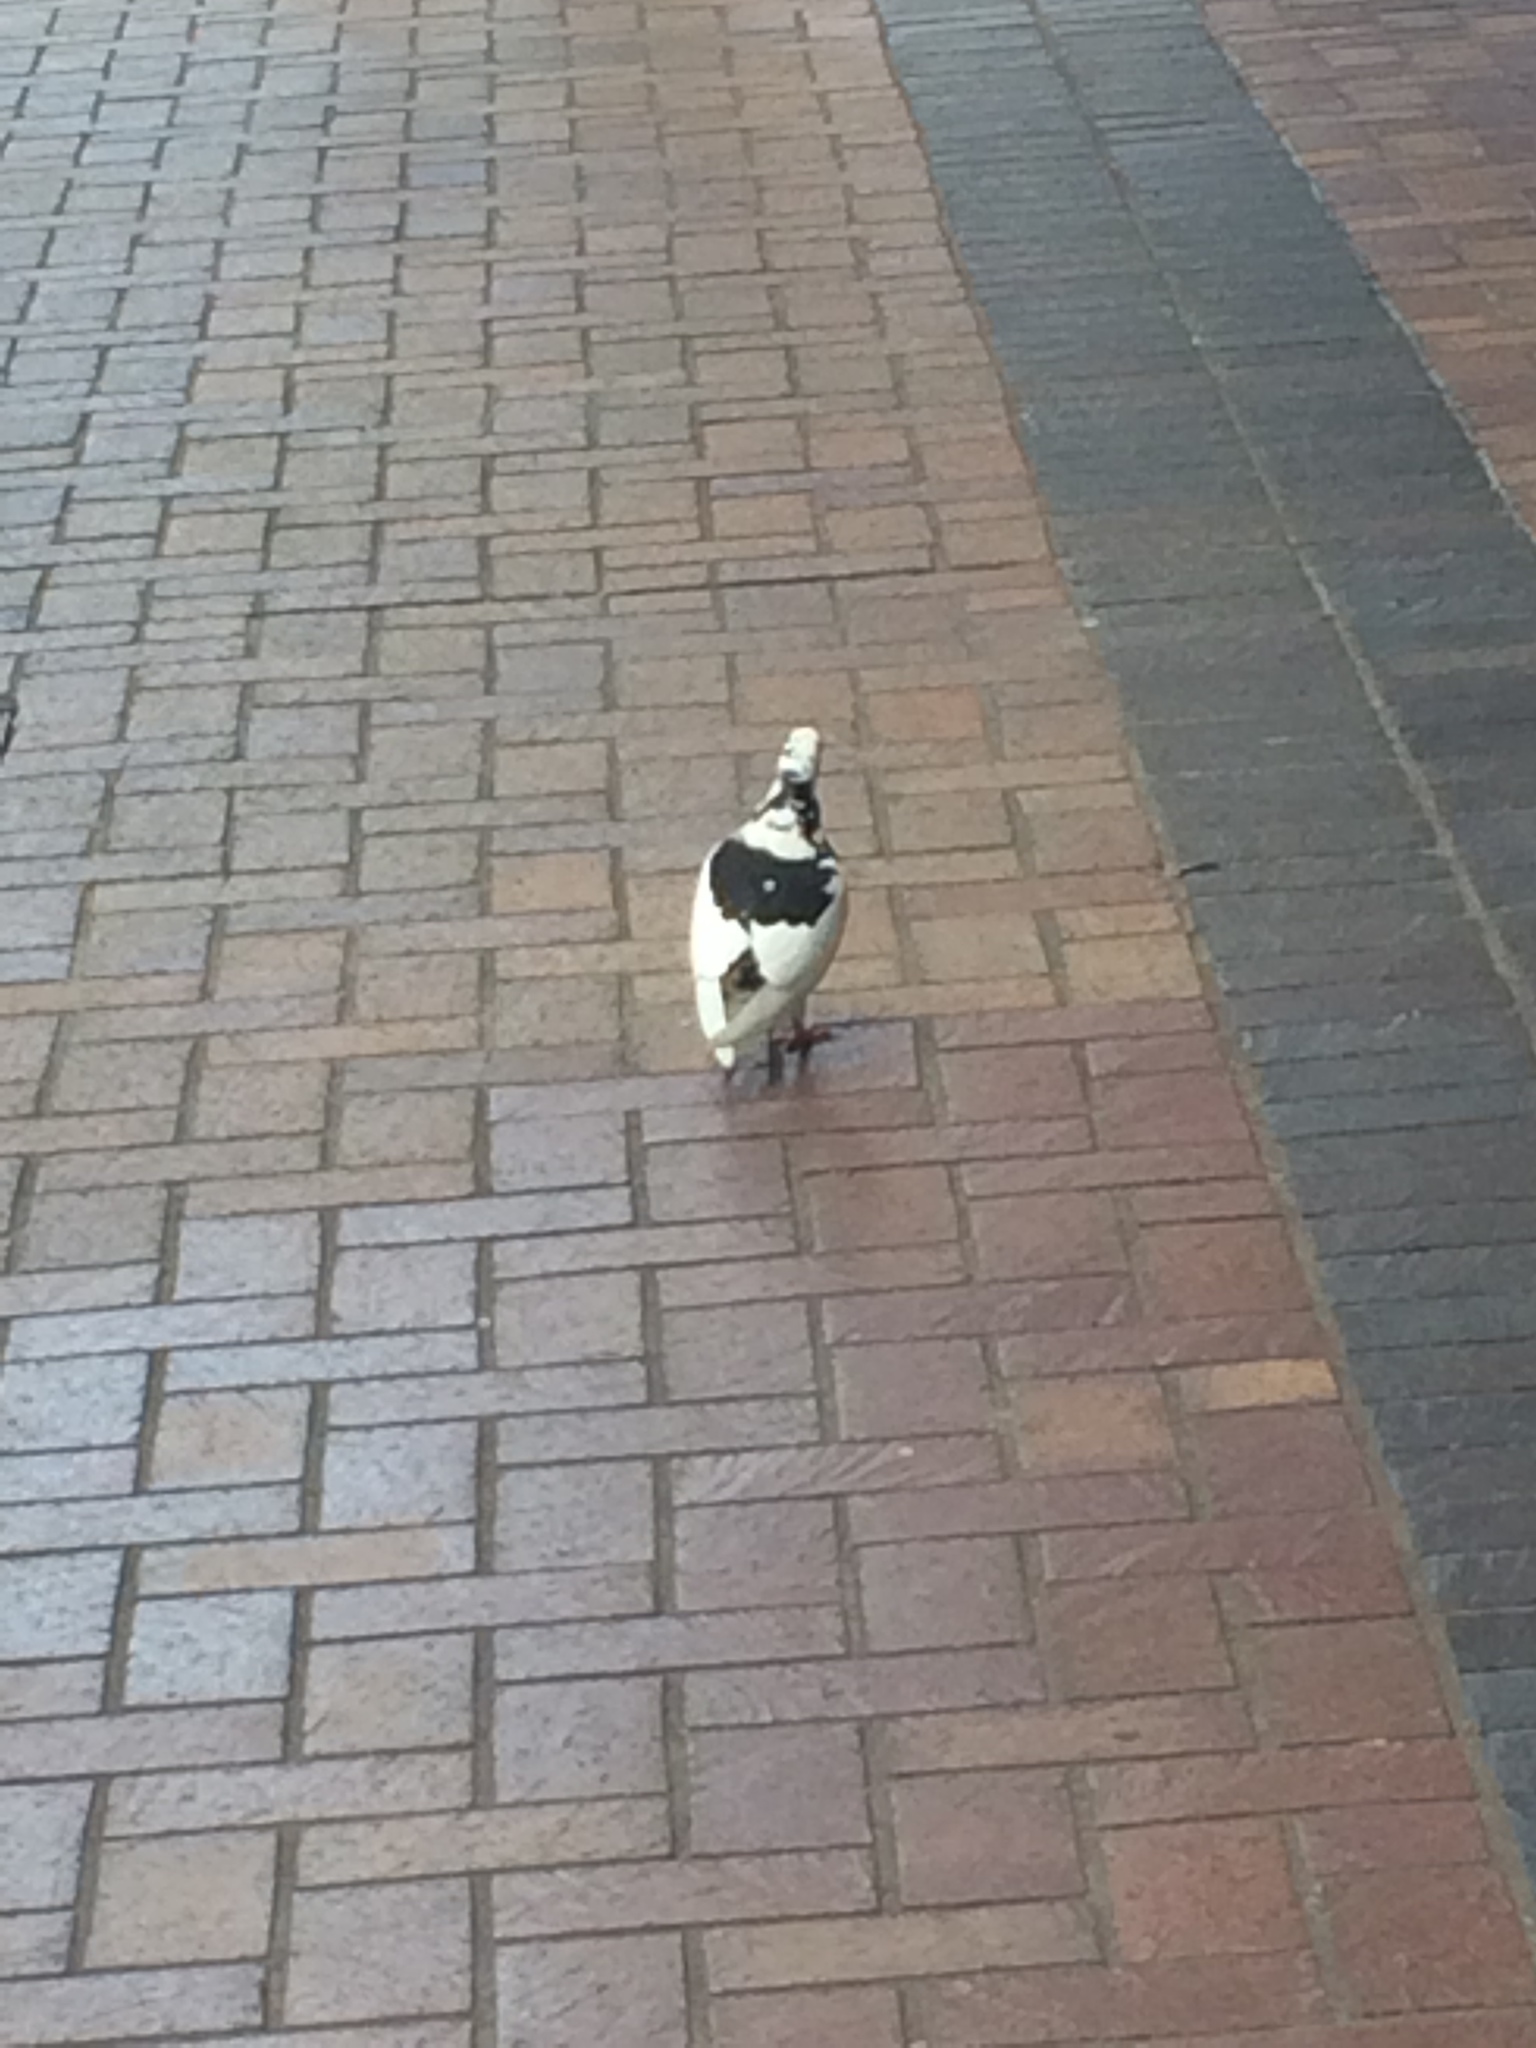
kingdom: Animalia
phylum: Chordata
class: Aves
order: Columbiformes
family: Columbidae
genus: Columba
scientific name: Columba livia
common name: Rock pigeon
